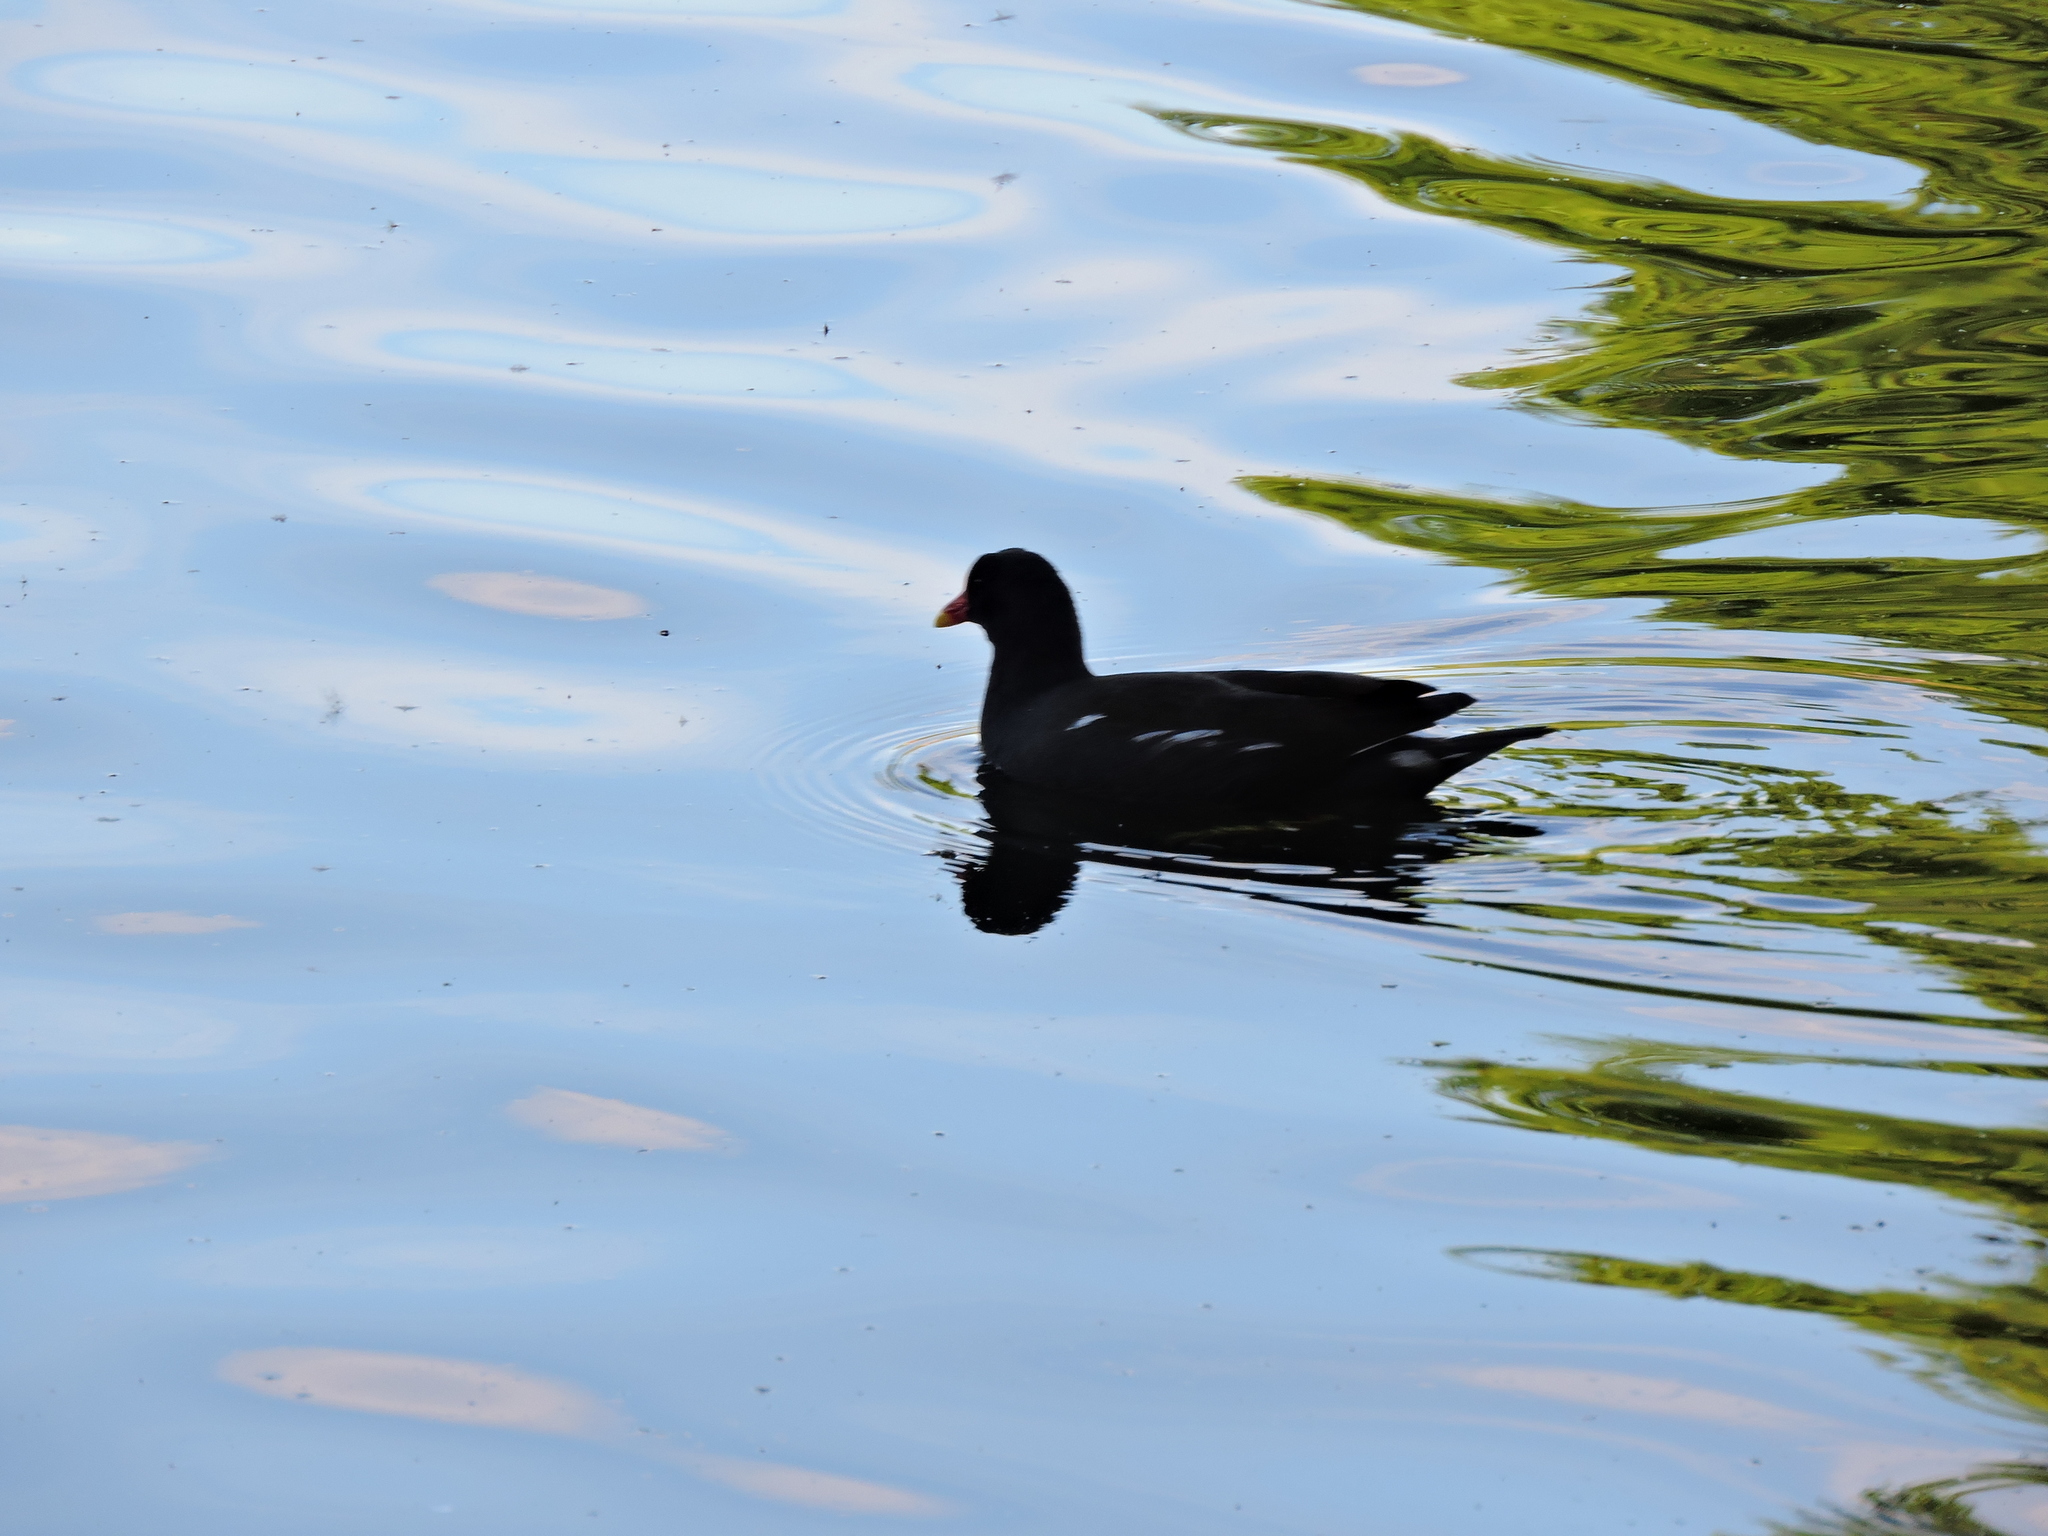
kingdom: Animalia
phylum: Chordata
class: Aves
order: Gruiformes
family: Rallidae
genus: Gallinula
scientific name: Gallinula chloropus
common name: Common moorhen
